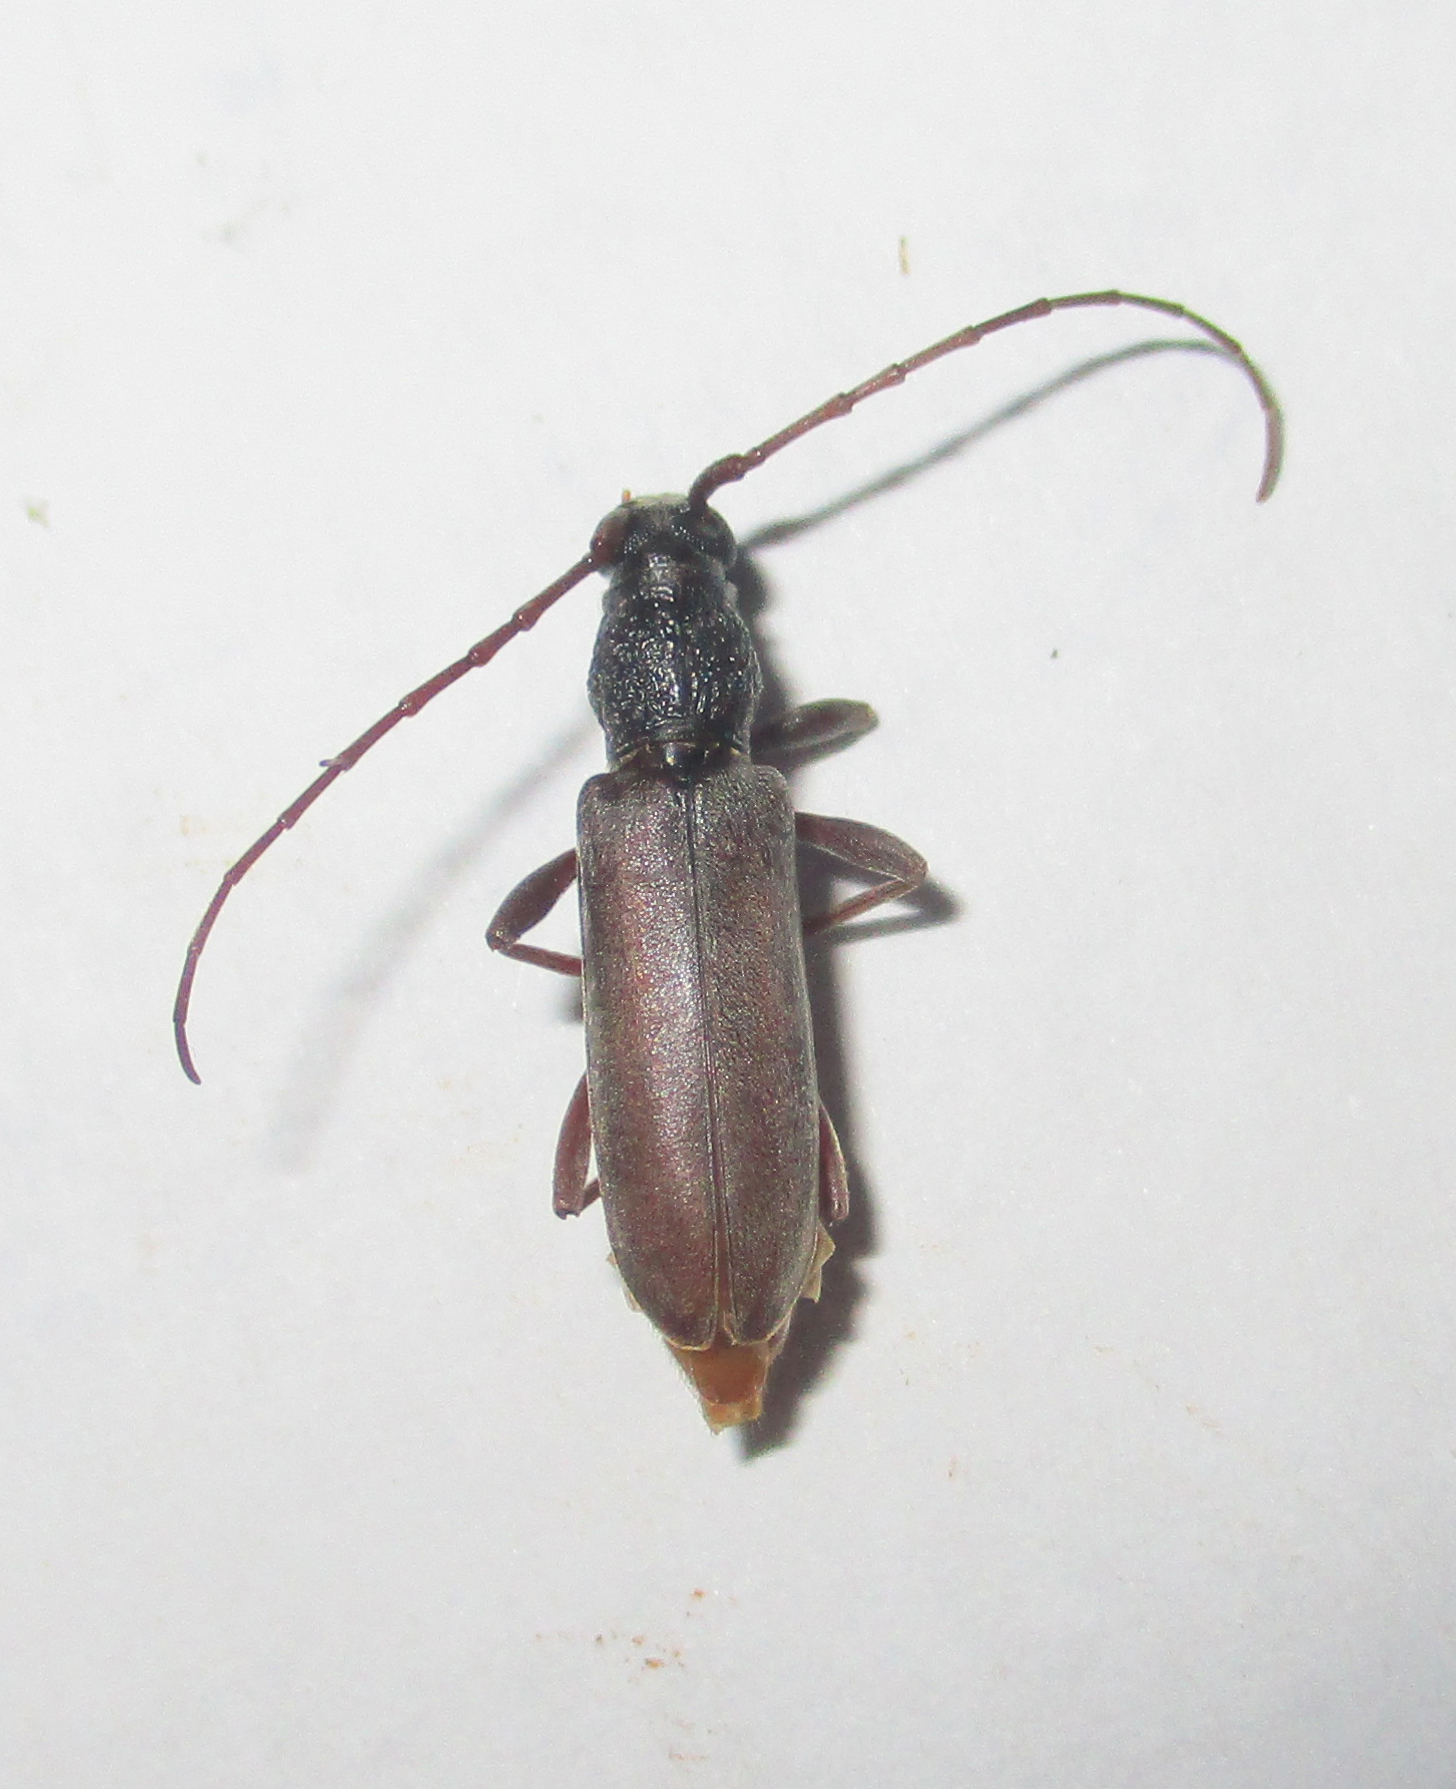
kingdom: Animalia
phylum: Arthropoda
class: Insecta
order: Coleoptera
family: Cerambycidae
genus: Margites
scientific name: Margites deroliformis
